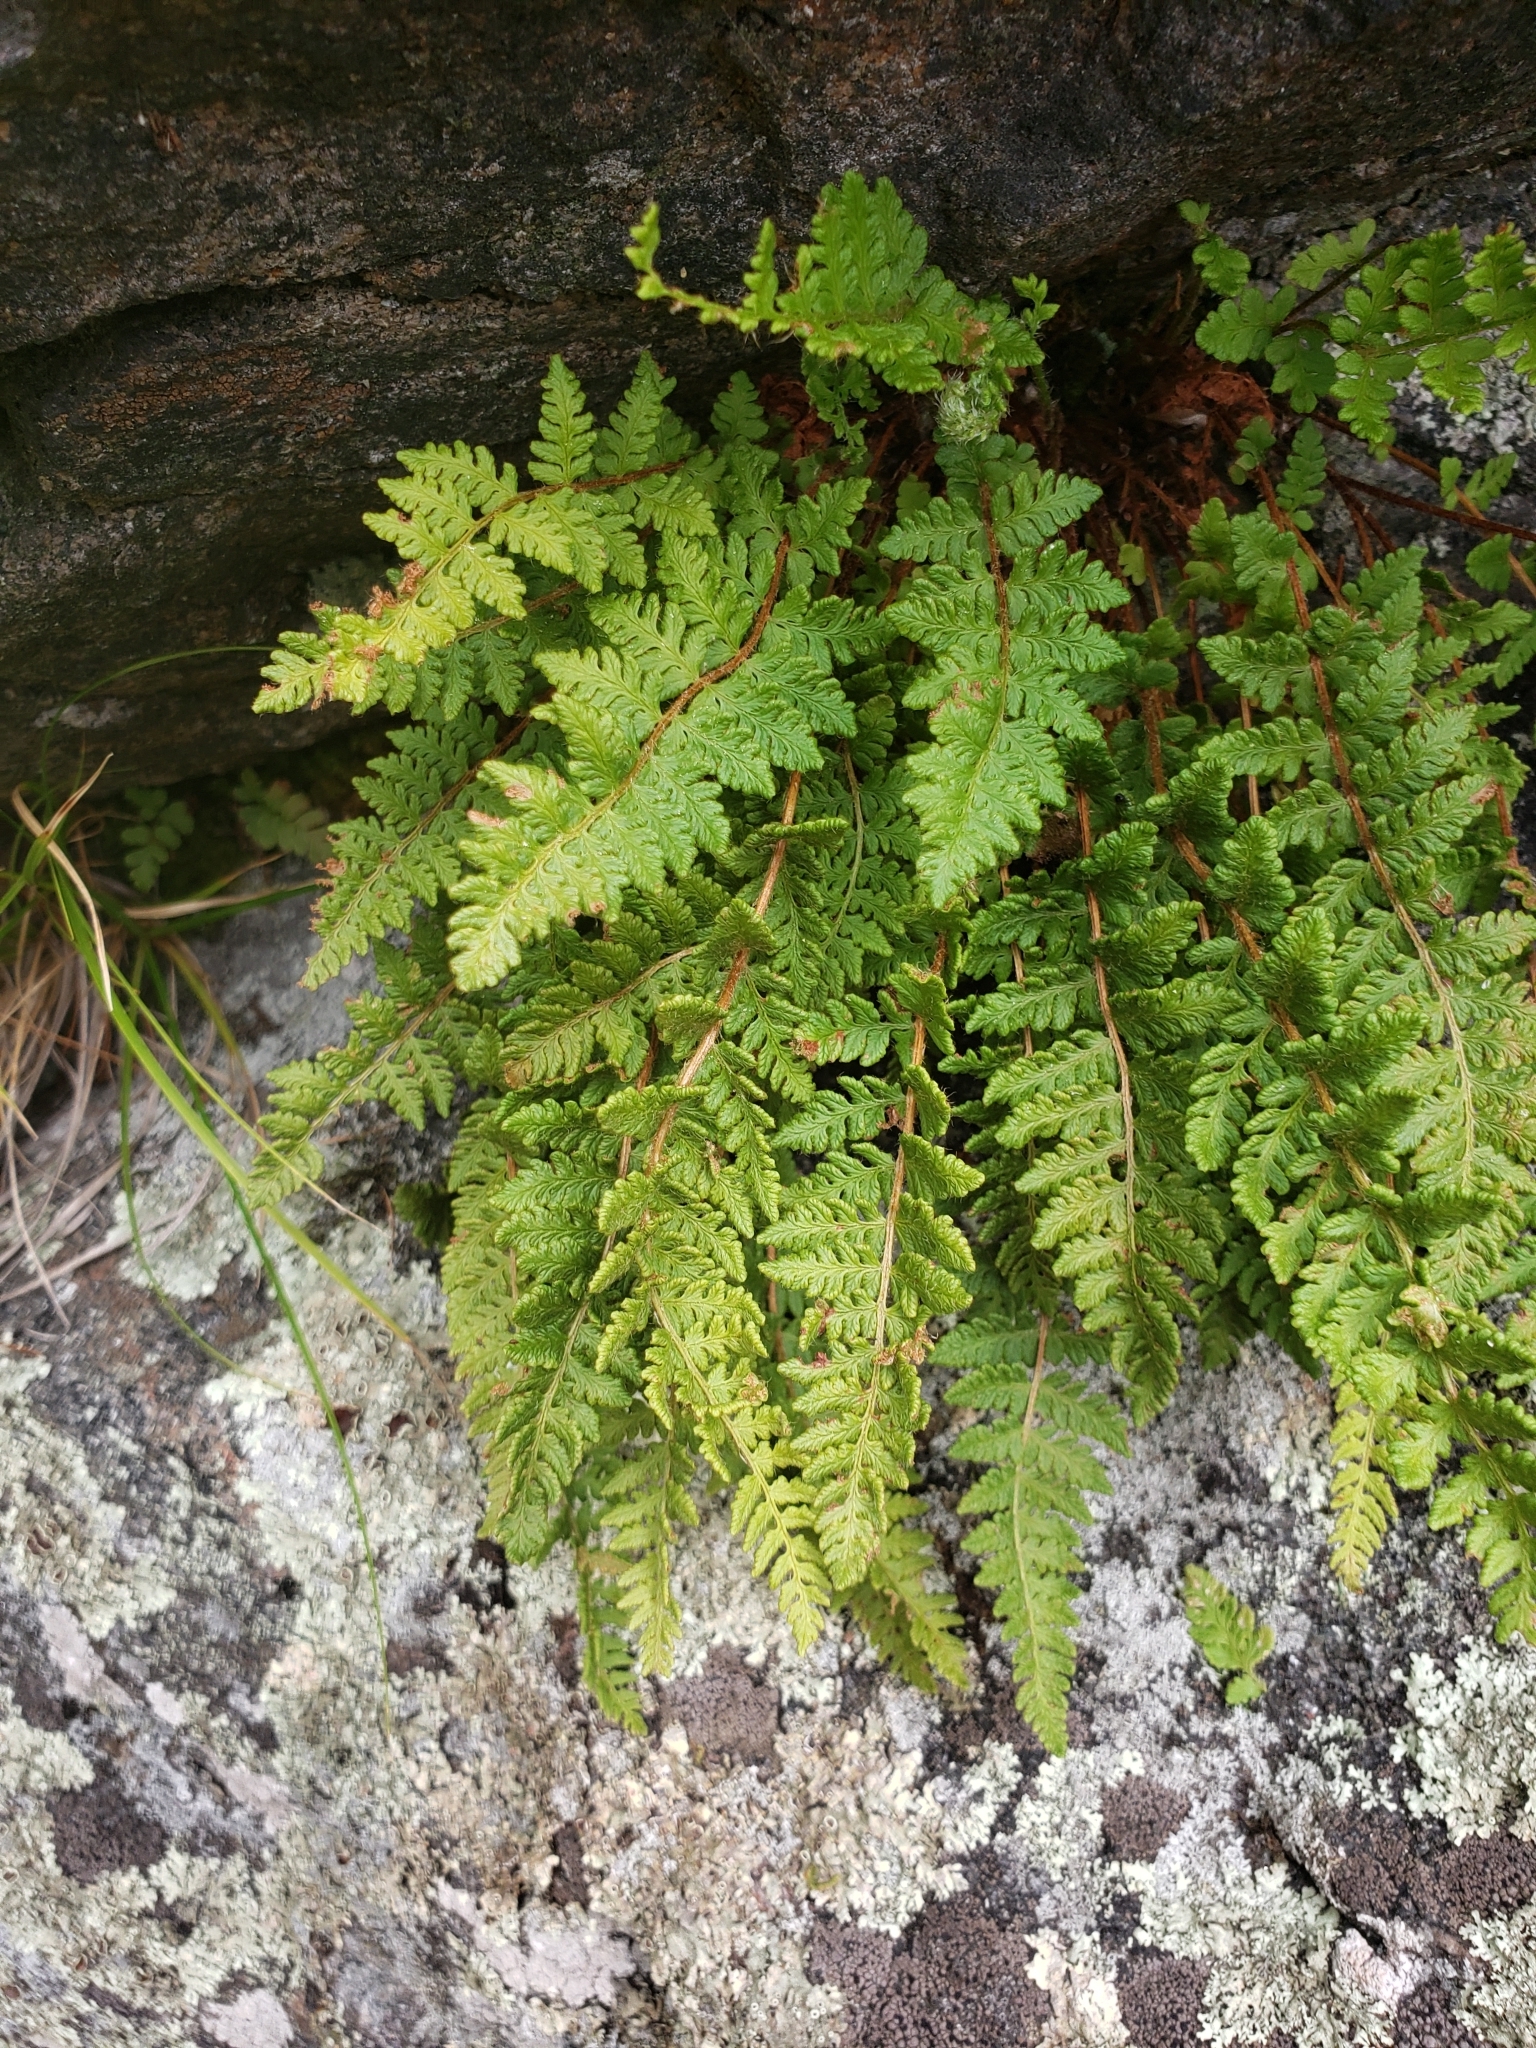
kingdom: Plantae
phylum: Tracheophyta
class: Polypodiopsida
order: Polypodiales
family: Woodsiaceae
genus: Woodsia
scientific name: Woodsia ilvensis
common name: Fragrant woodsia
